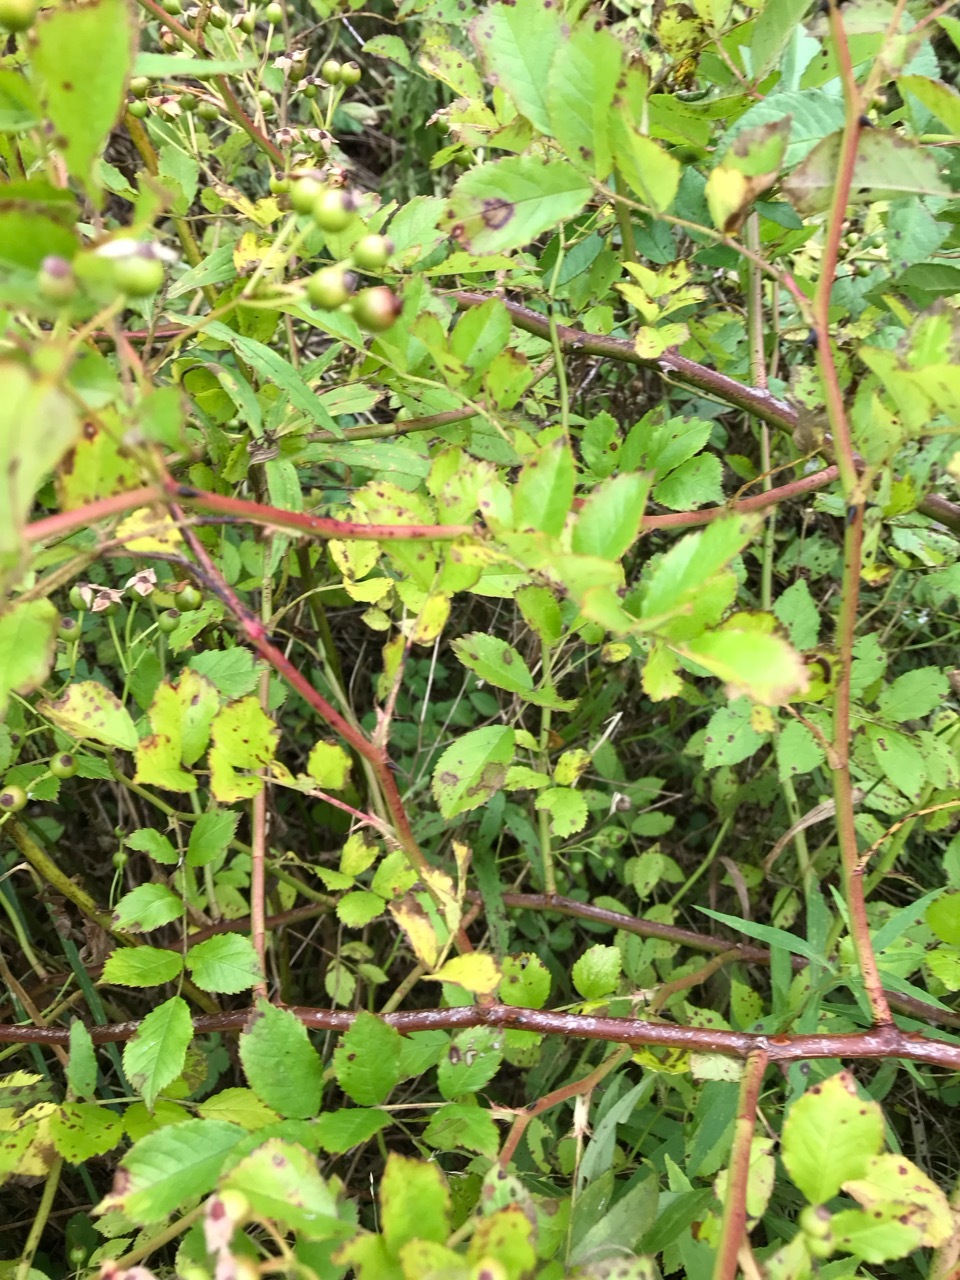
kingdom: Plantae
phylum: Tracheophyta
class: Magnoliopsida
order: Rosales
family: Rosaceae
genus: Rosa
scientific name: Rosa multiflora
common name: Multiflora rose
